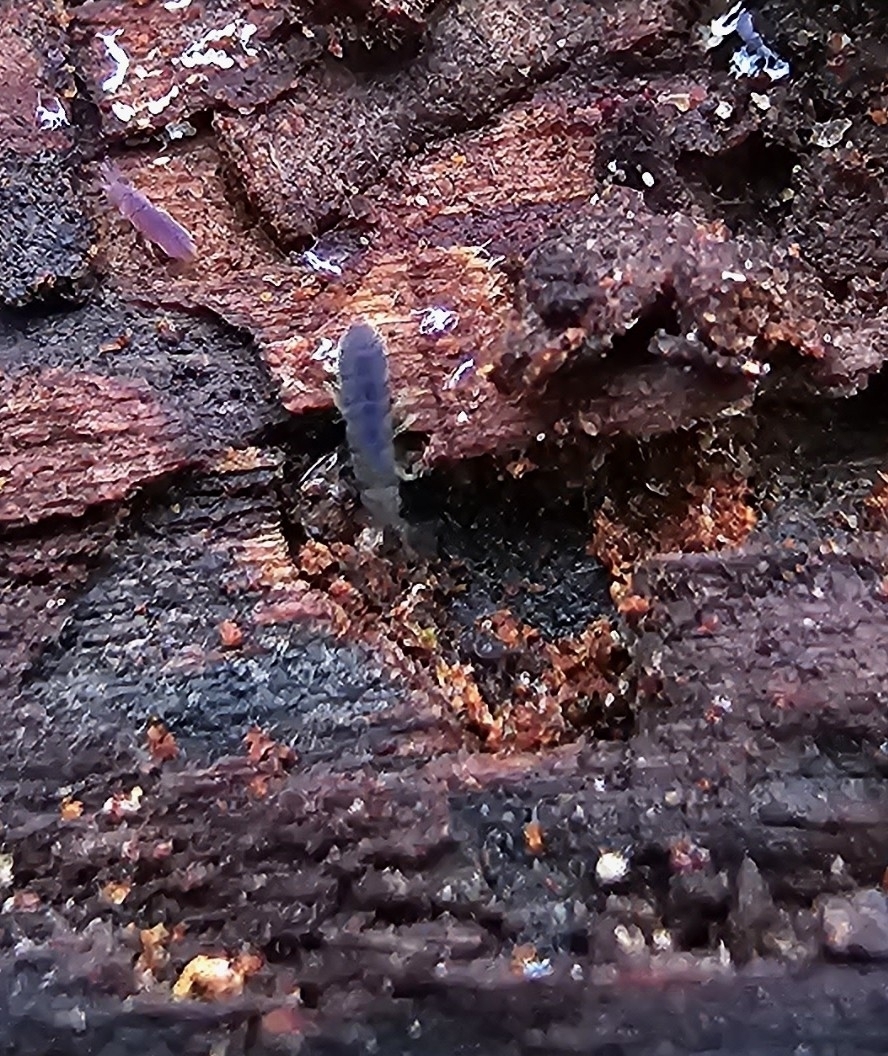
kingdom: Animalia
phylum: Arthropoda
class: Collembola
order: Entomobryomorpha
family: Isotomidae
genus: Vertagopus
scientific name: Vertagopus asiaticus
